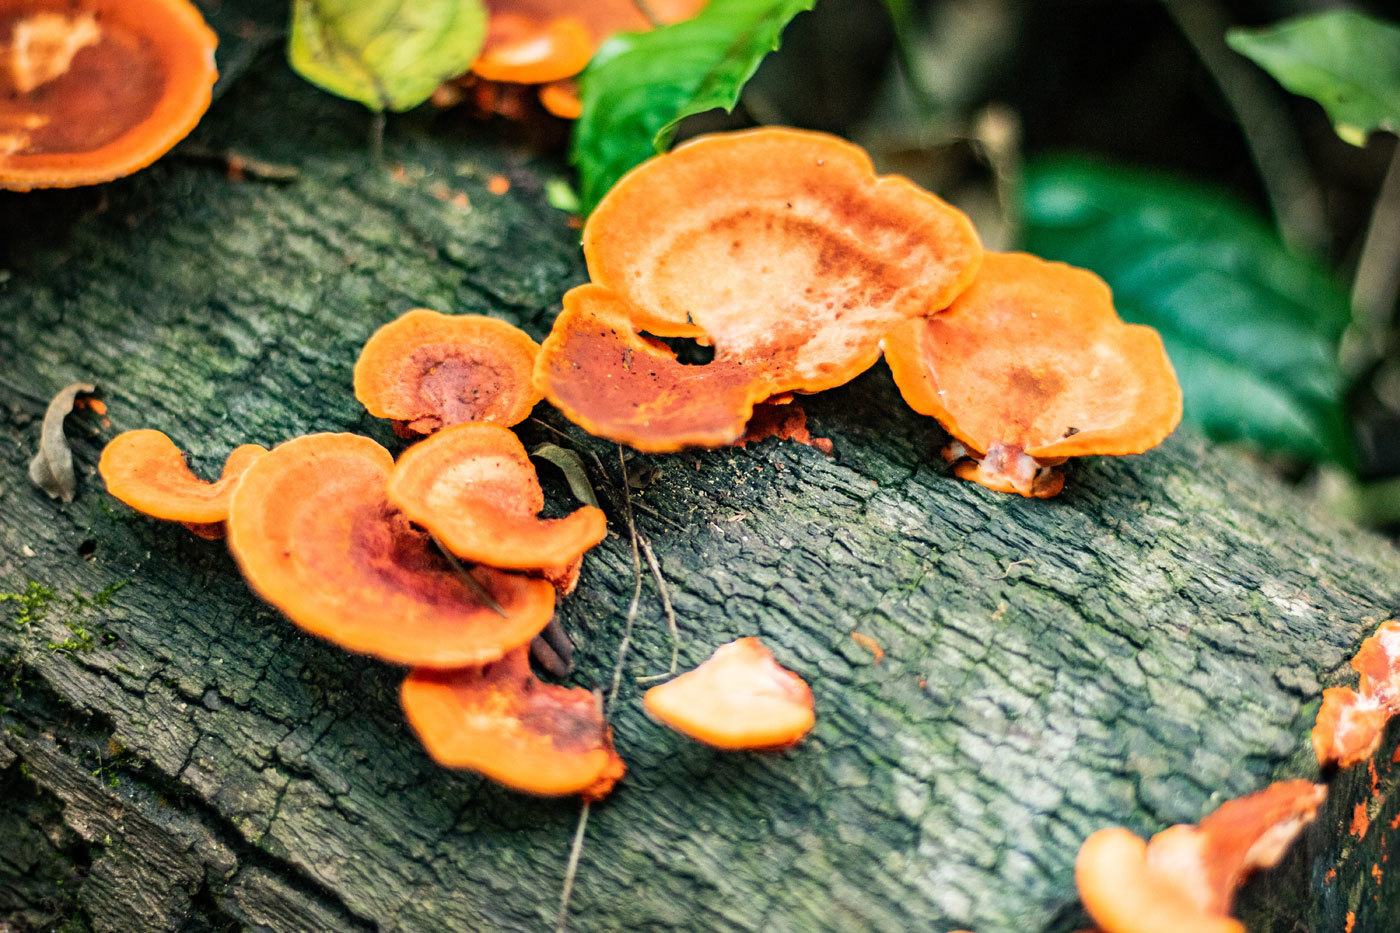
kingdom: Fungi
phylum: Basidiomycota
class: Agaricomycetes
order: Polyporales
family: Polyporaceae
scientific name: Polyporaceae
